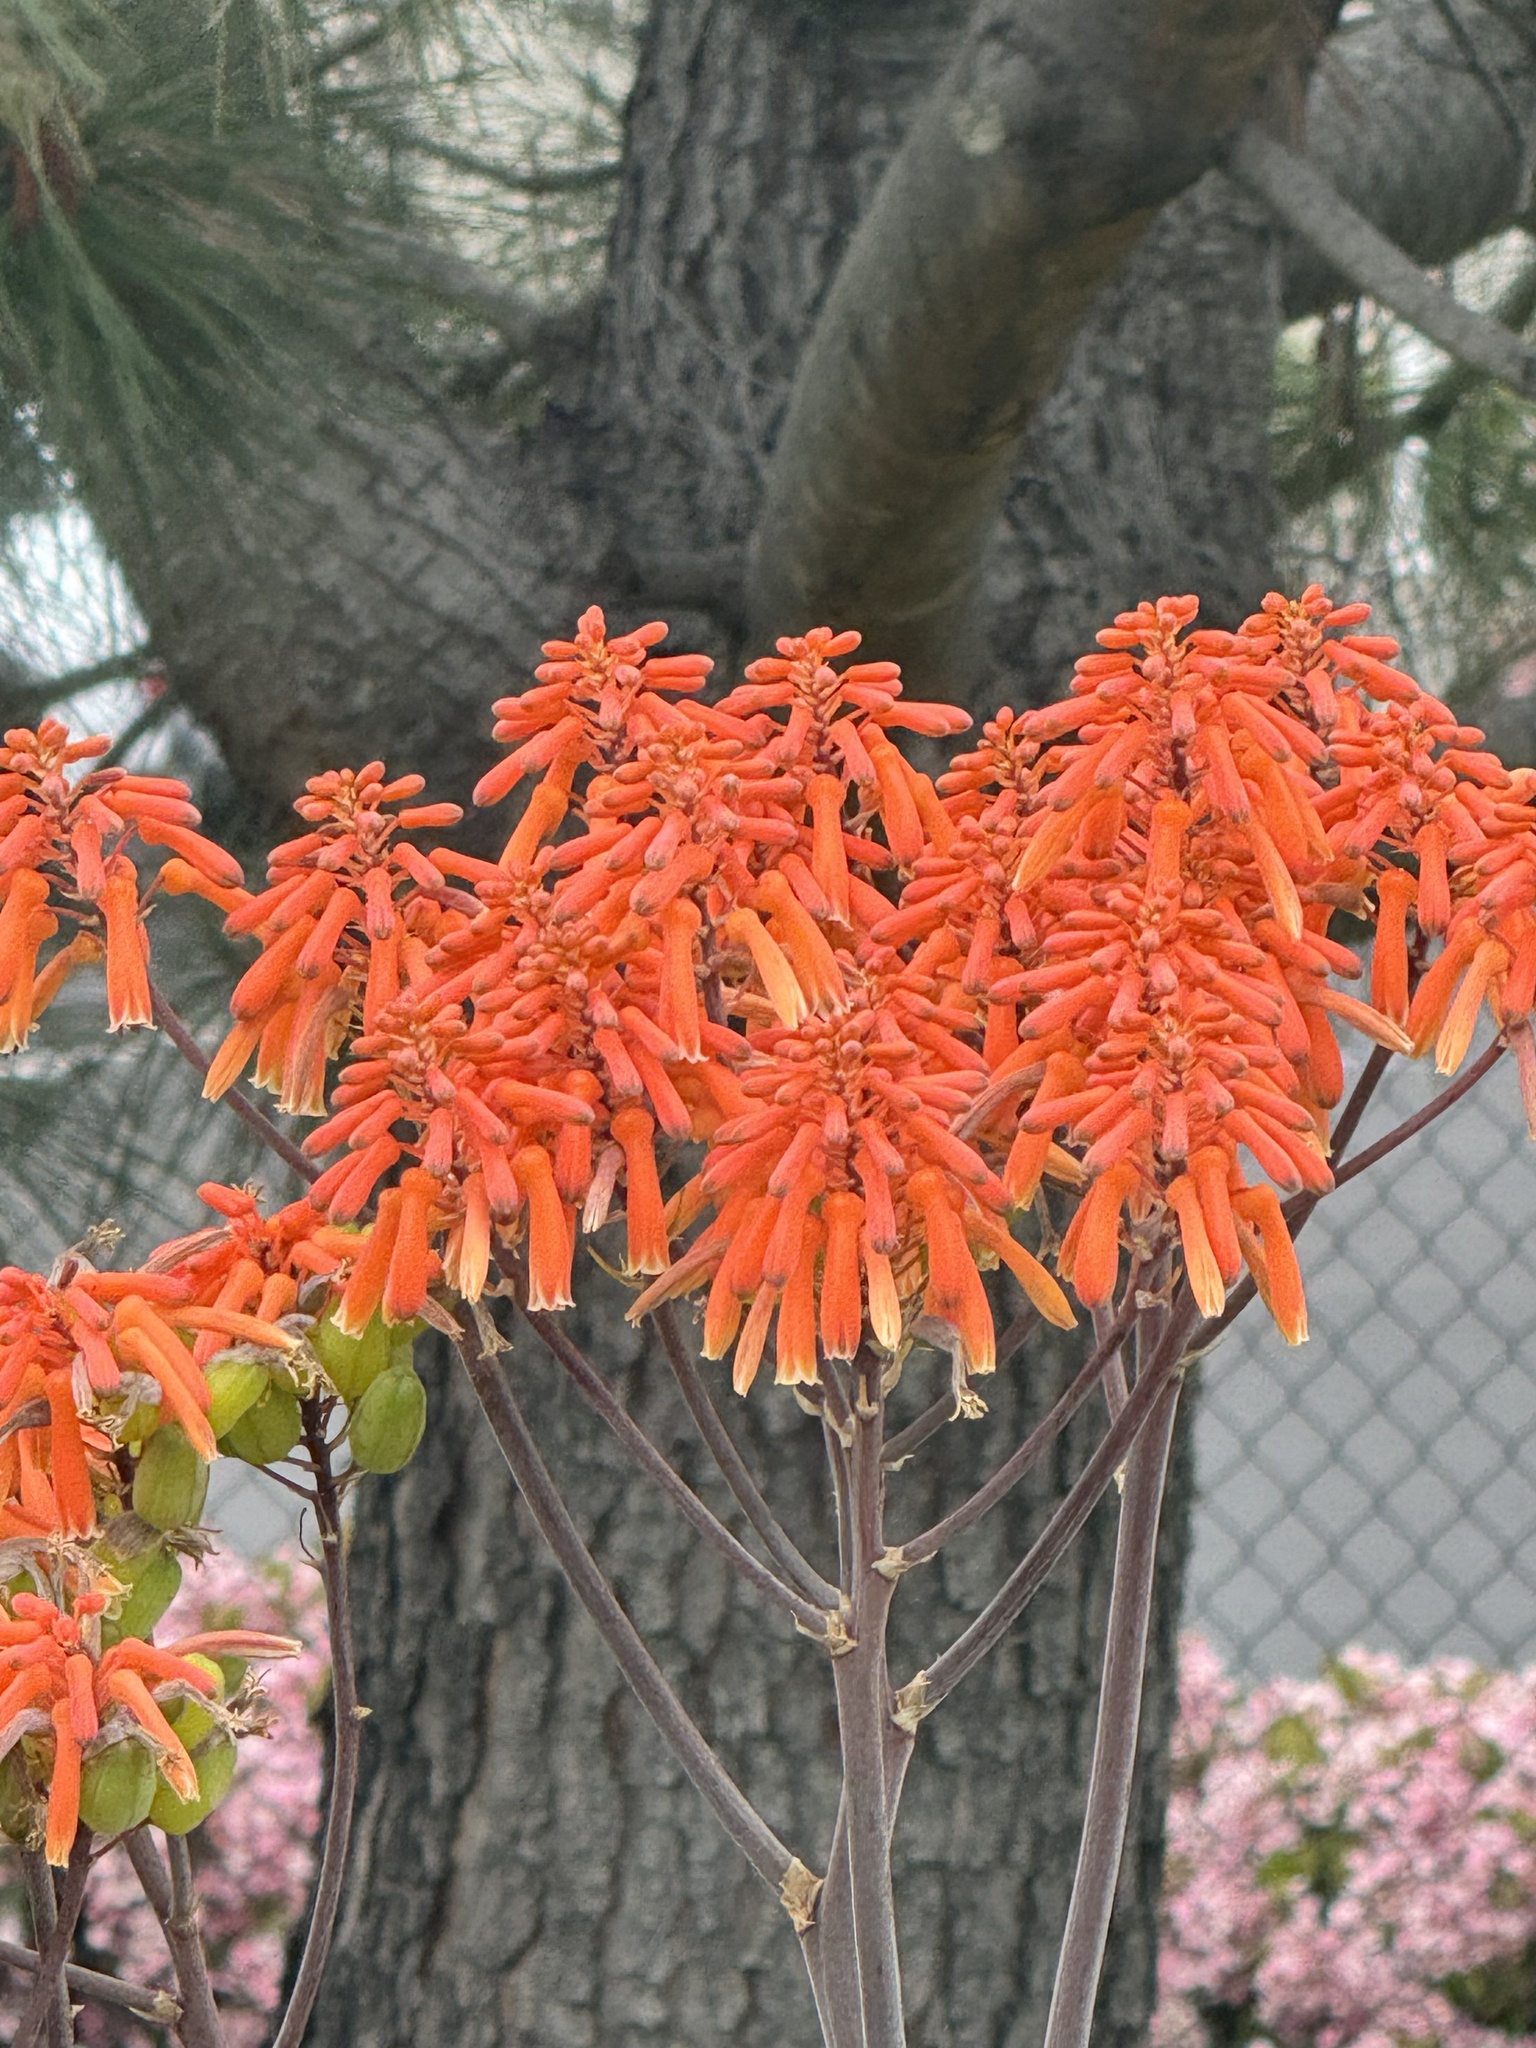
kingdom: Plantae
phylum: Tracheophyta
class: Liliopsida
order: Asparagales
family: Asphodelaceae
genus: Aloe
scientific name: Aloe striata
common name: Coral aloe
